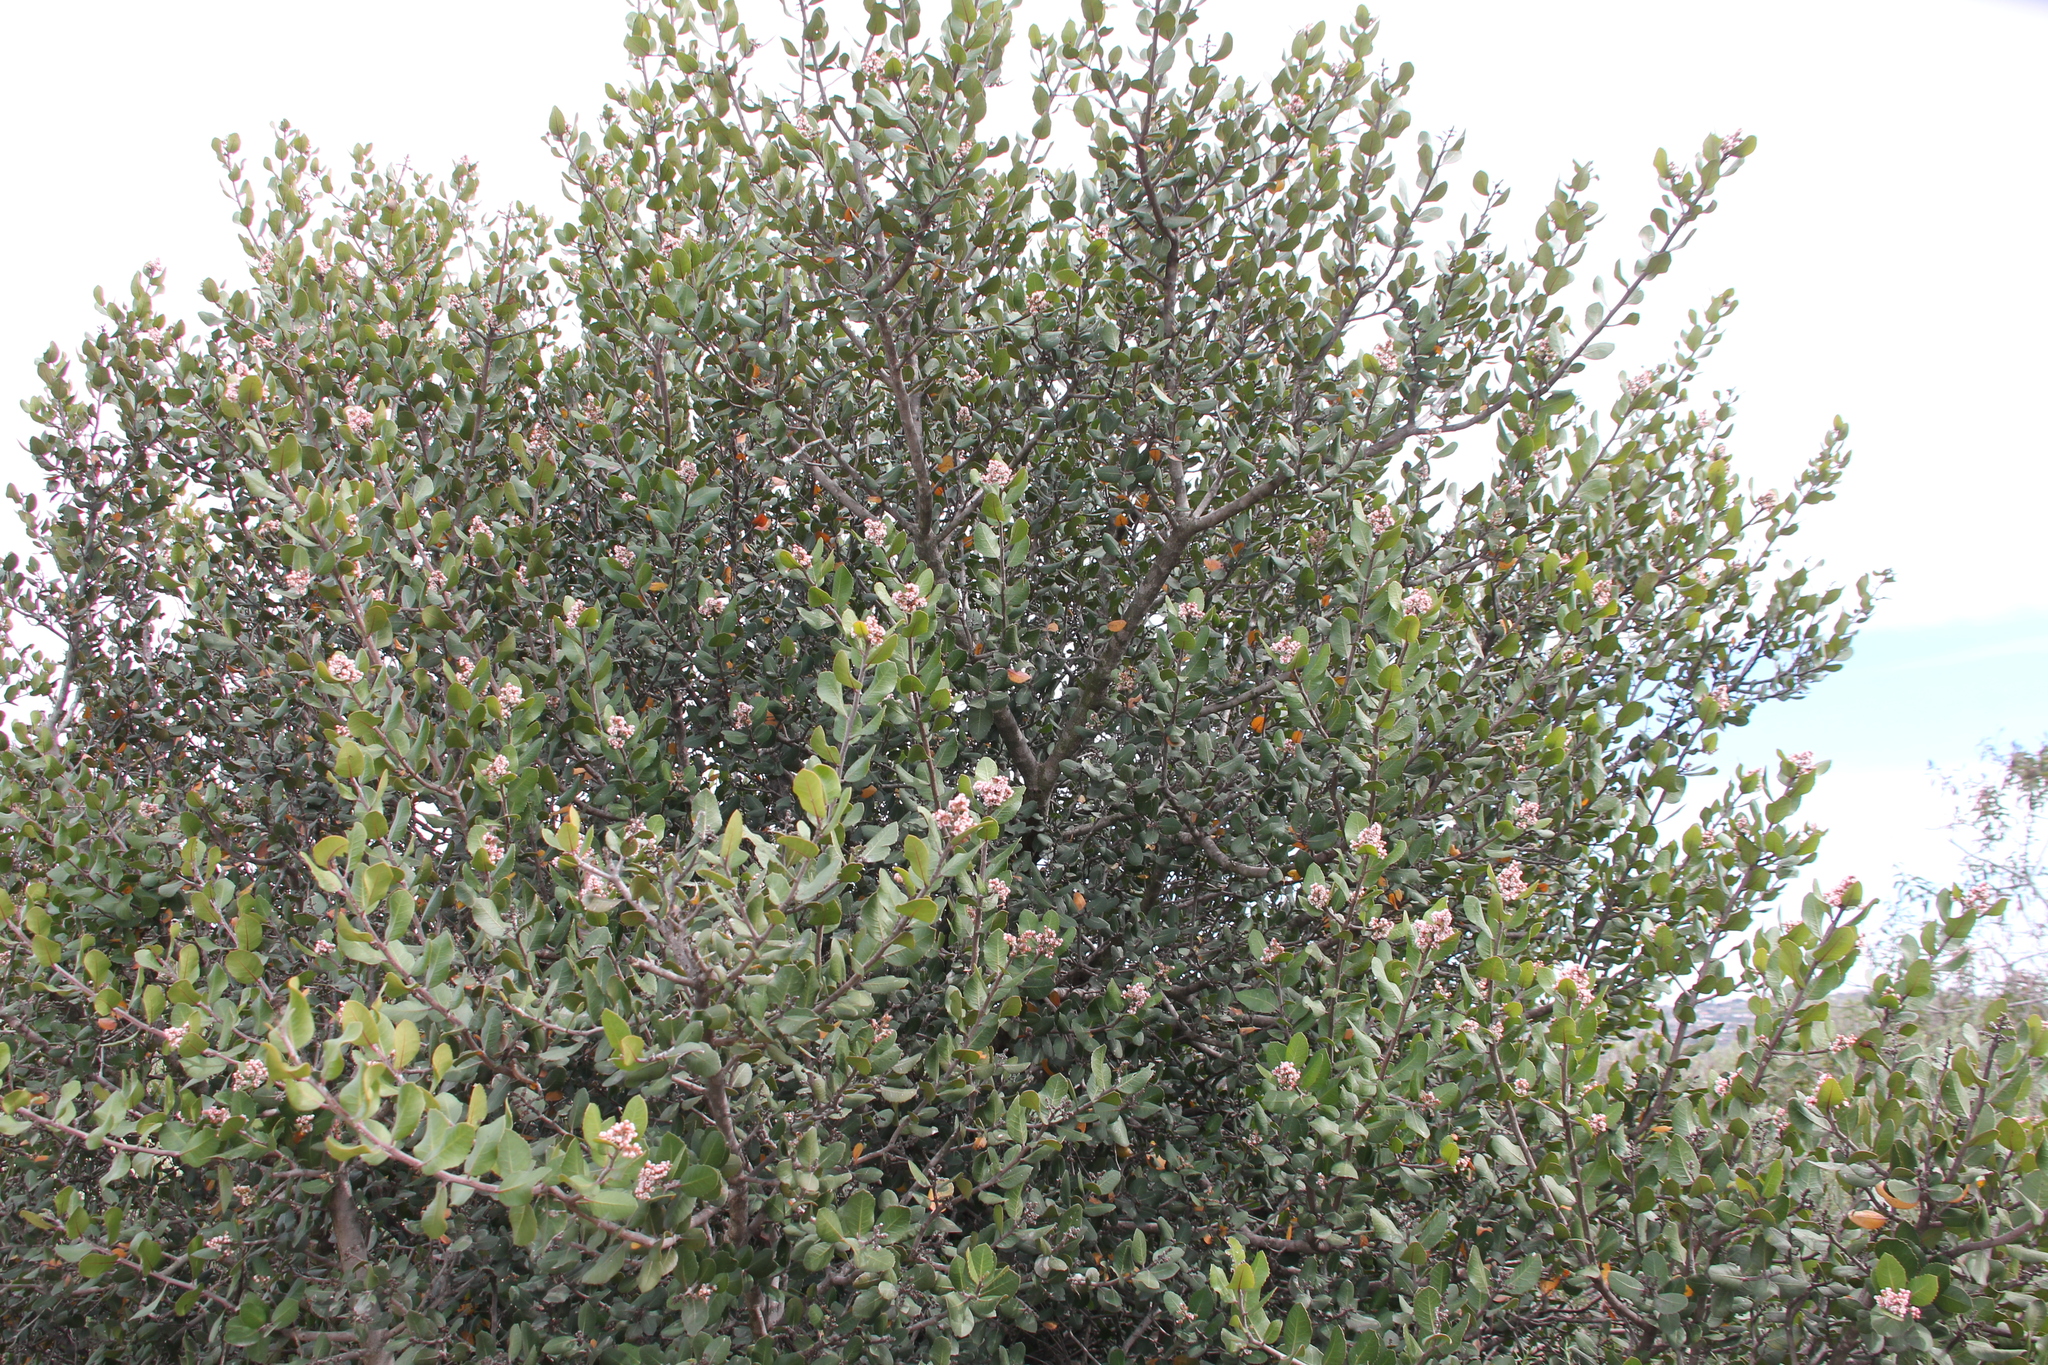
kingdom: Plantae
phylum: Tracheophyta
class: Magnoliopsida
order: Sapindales
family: Anacardiaceae
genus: Rhus
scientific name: Rhus integrifolia
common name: Lemonade sumac
